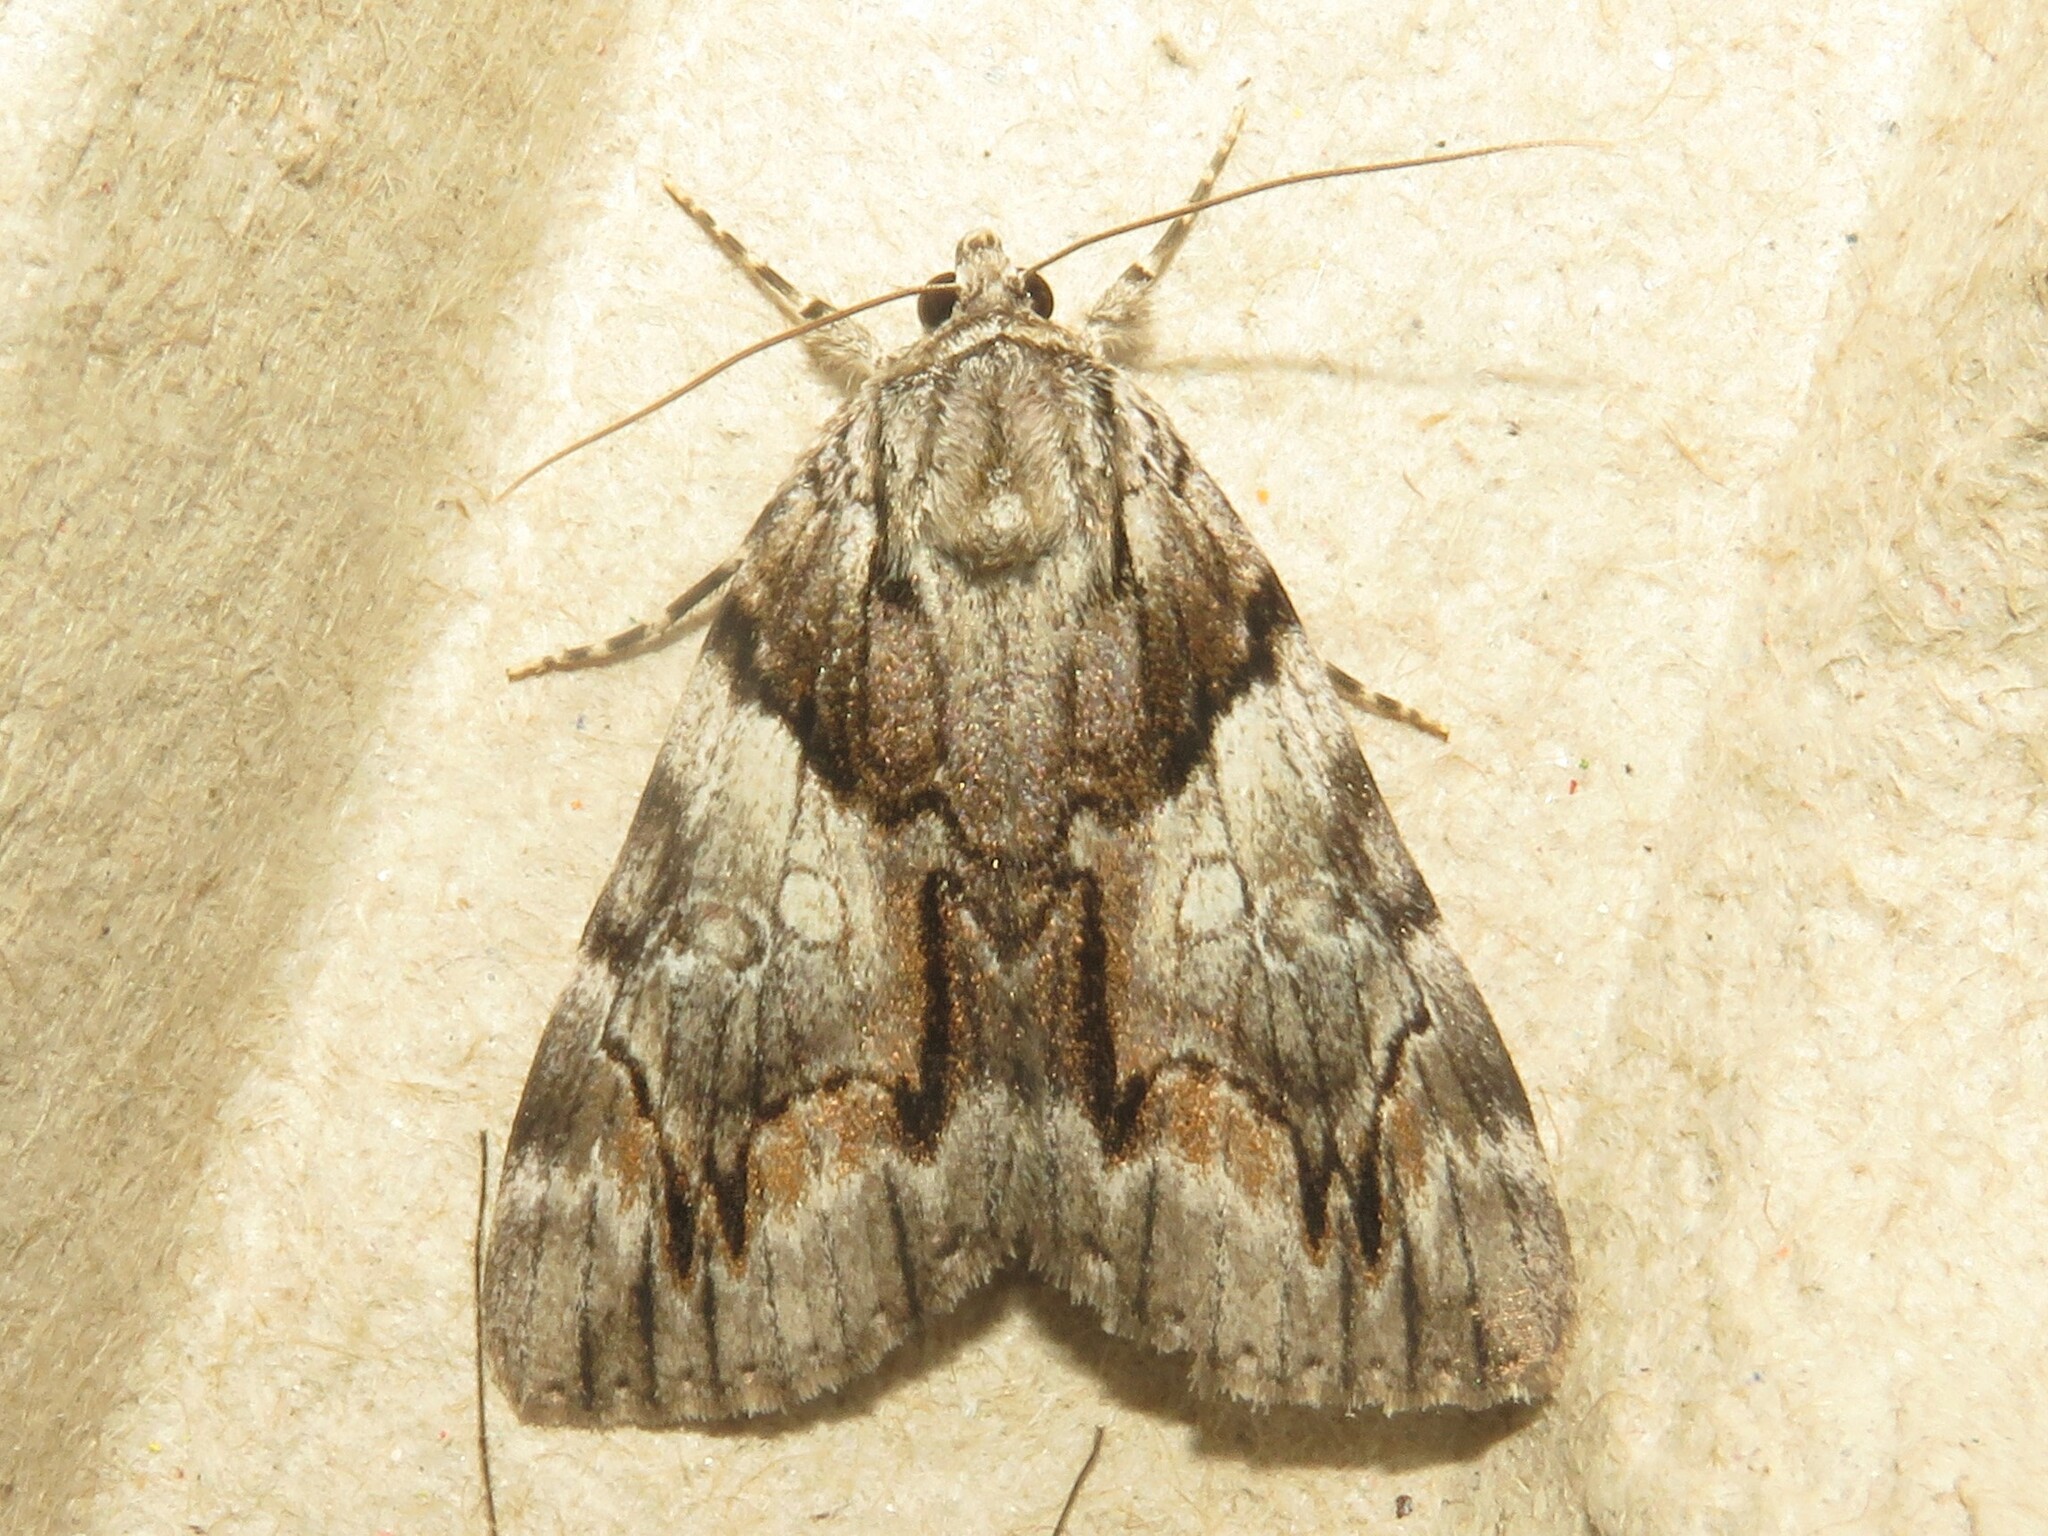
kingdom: Animalia
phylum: Arthropoda
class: Insecta
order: Lepidoptera
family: Erebidae
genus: Catocala
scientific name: Catocala blandula
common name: Charming underwing
